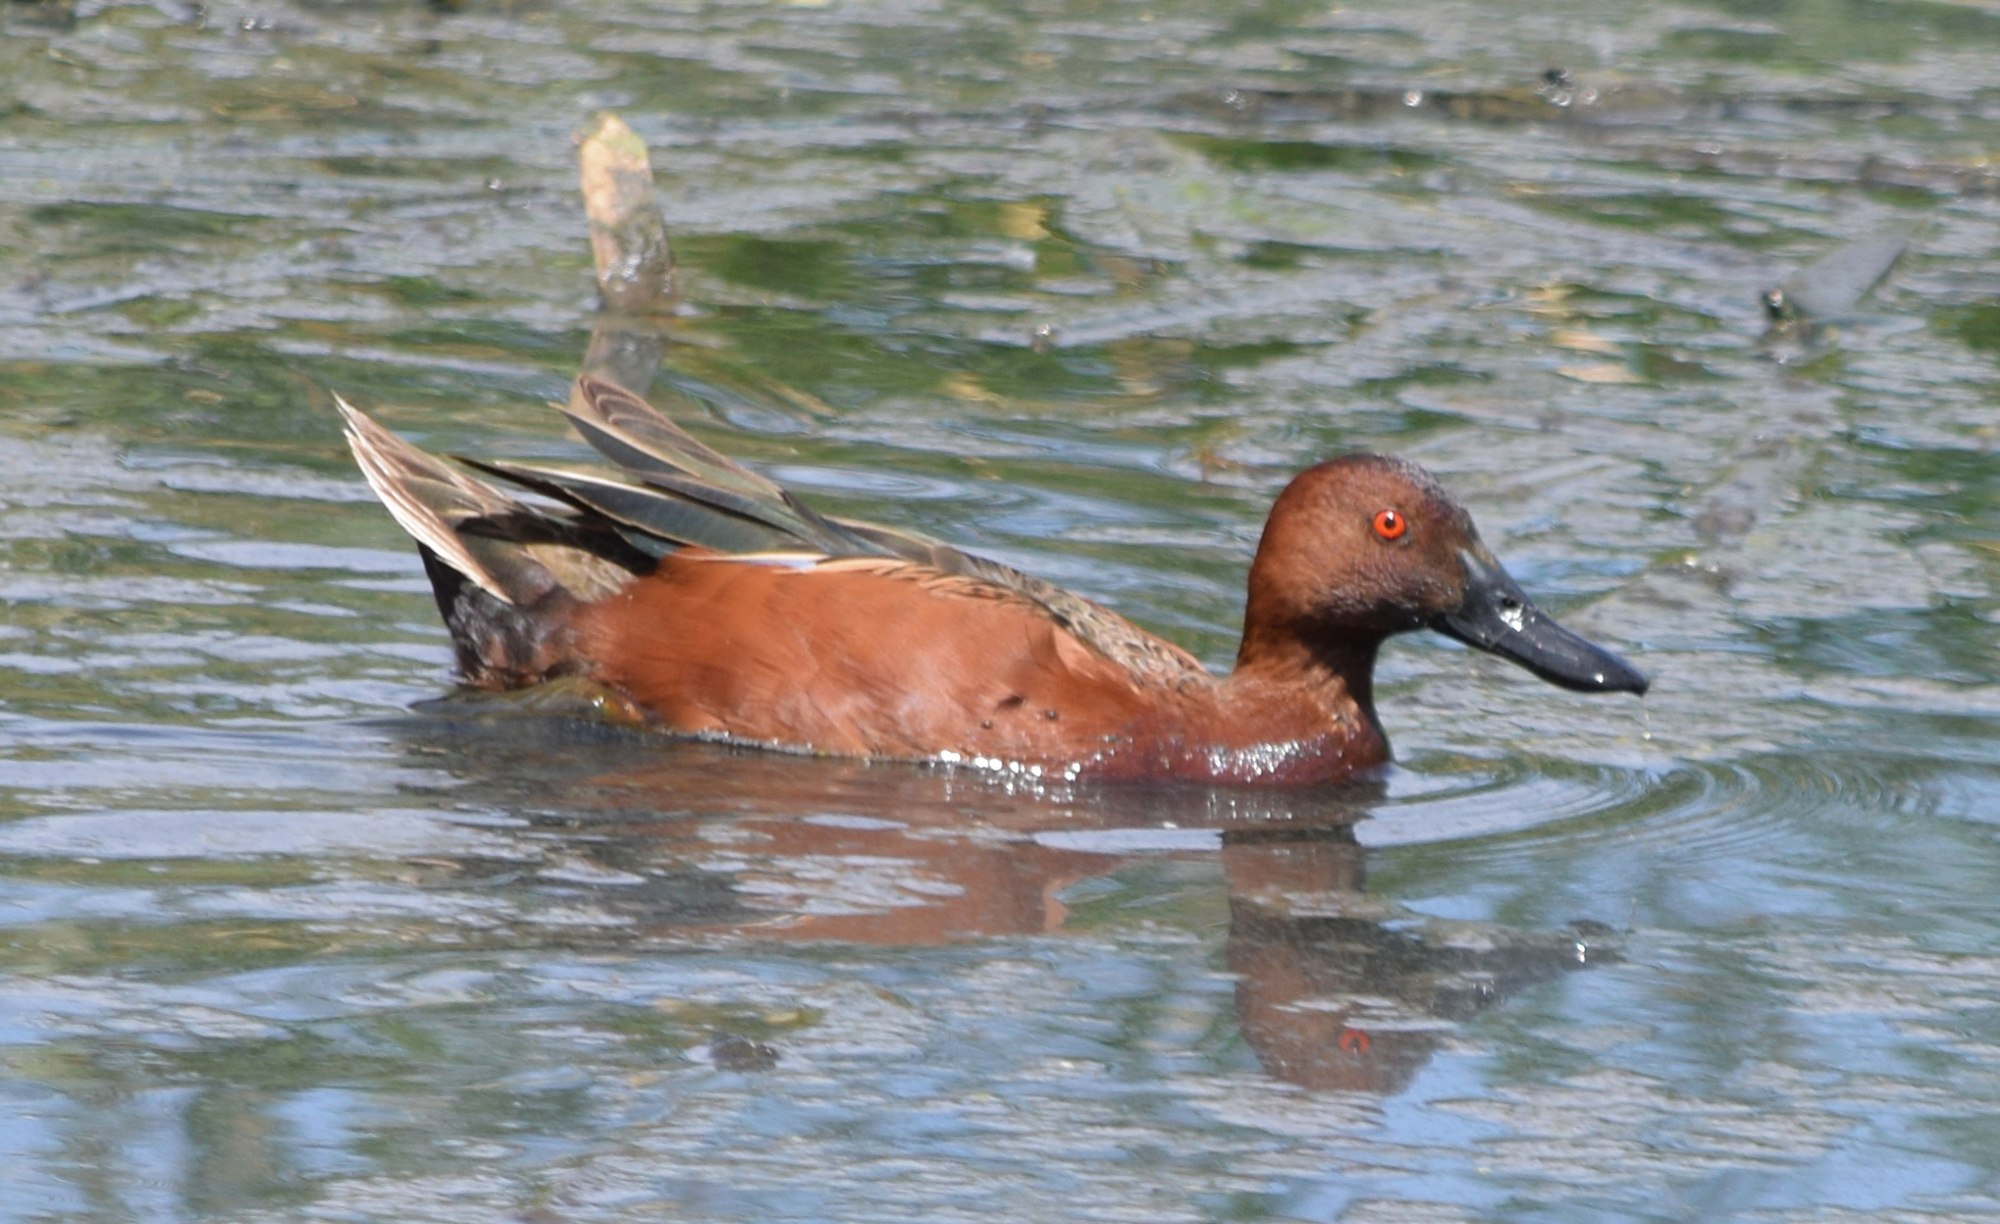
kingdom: Animalia
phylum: Chordata
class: Aves
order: Anseriformes
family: Anatidae
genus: Spatula
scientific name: Spatula cyanoptera
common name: Cinnamon teal
